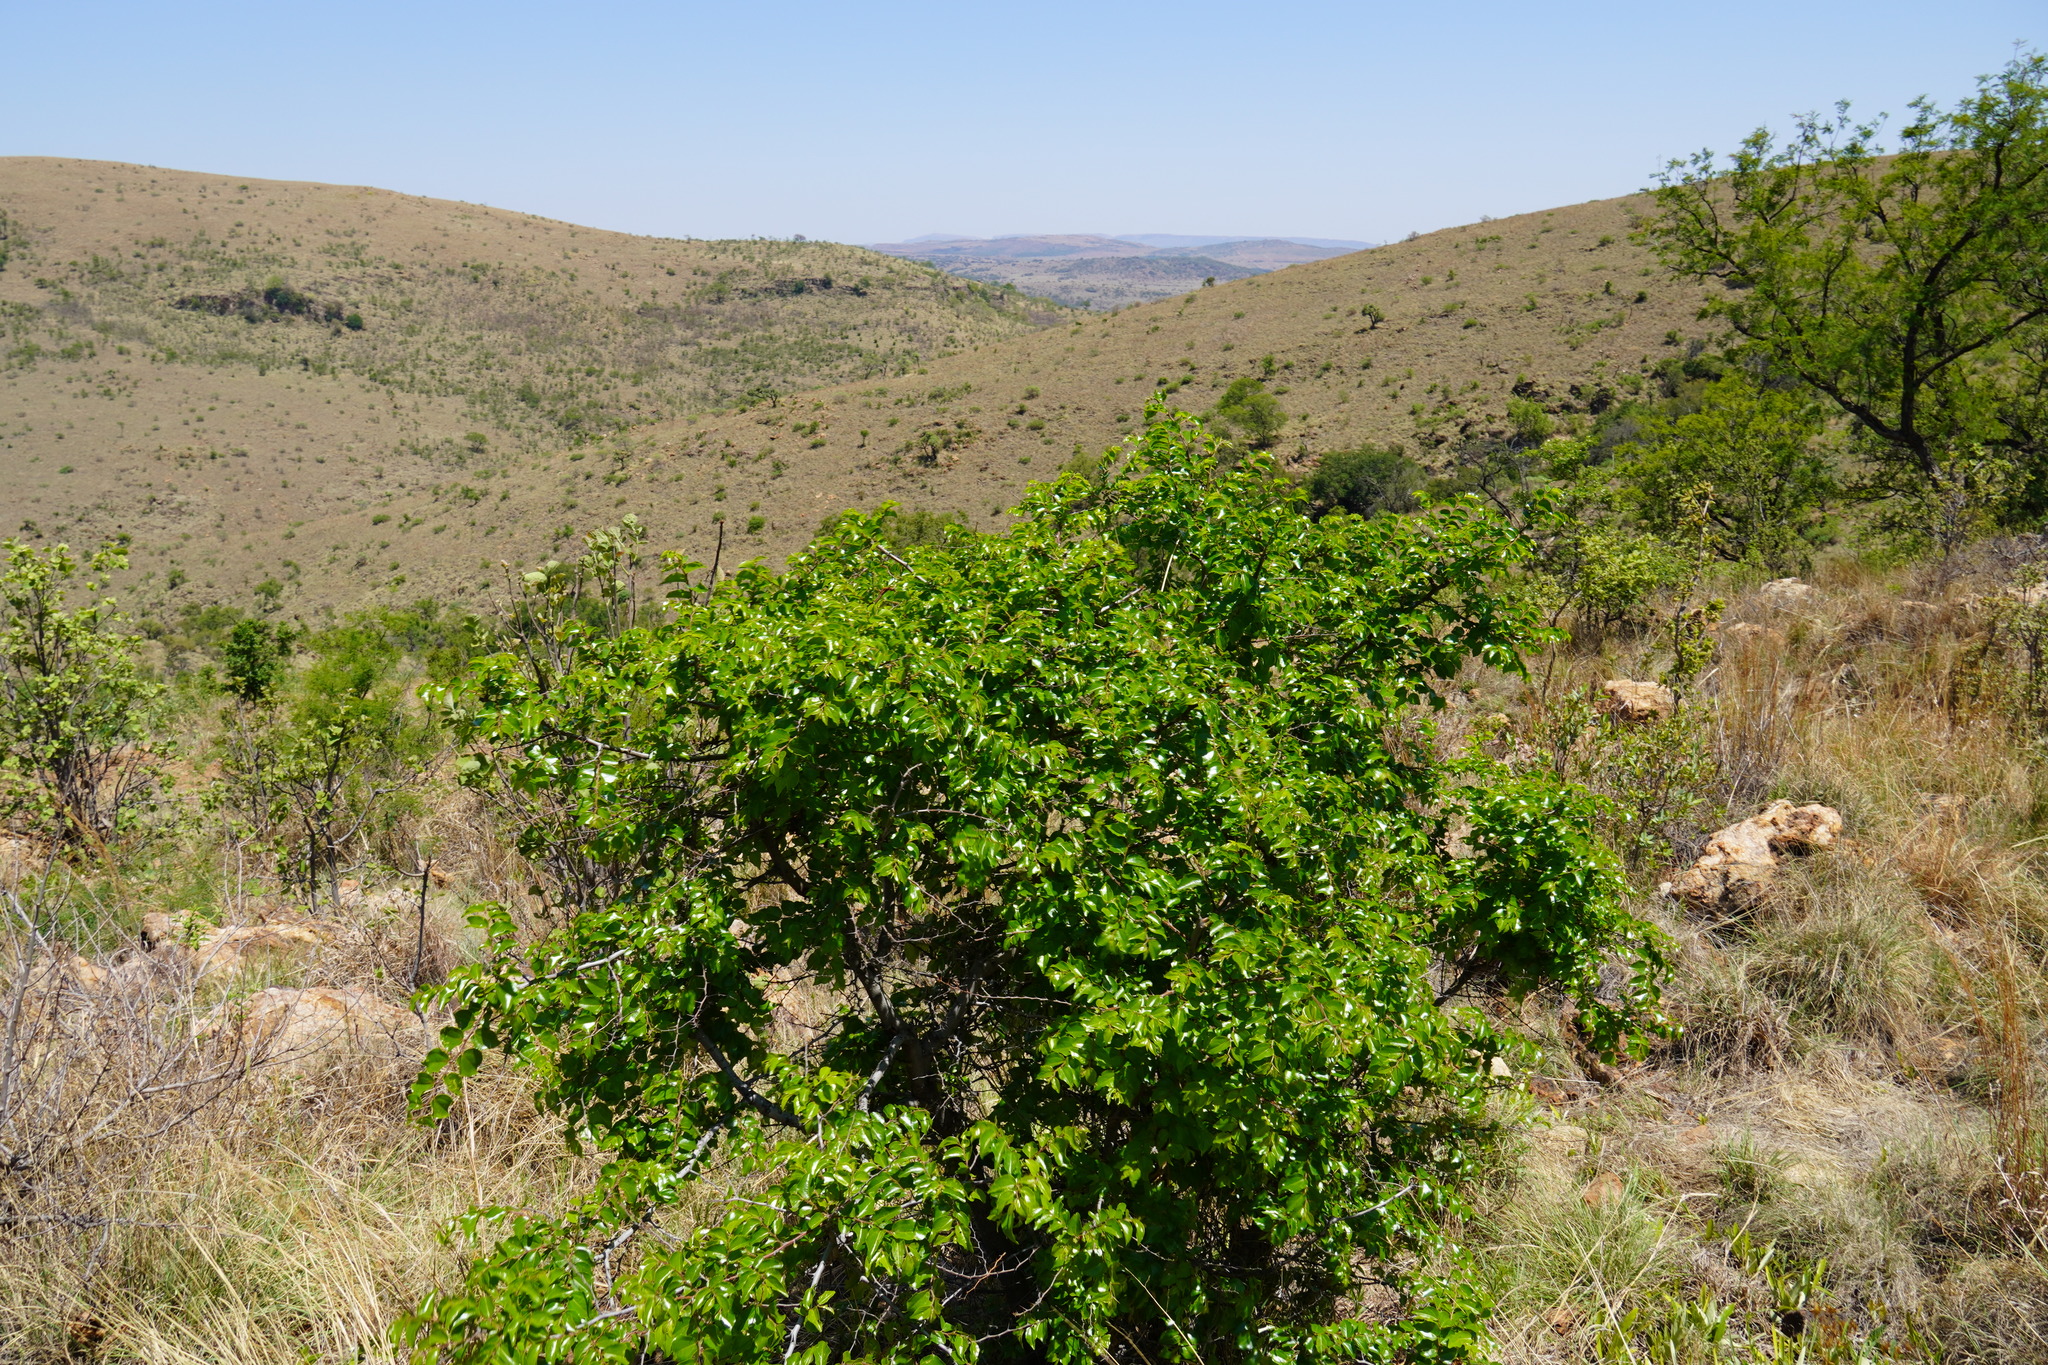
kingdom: Plantae
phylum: Tracheophyta
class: Magnoliopsida
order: Rosales
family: Rhamnaceae
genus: Ziziphus
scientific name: Ziziphus mucronata
